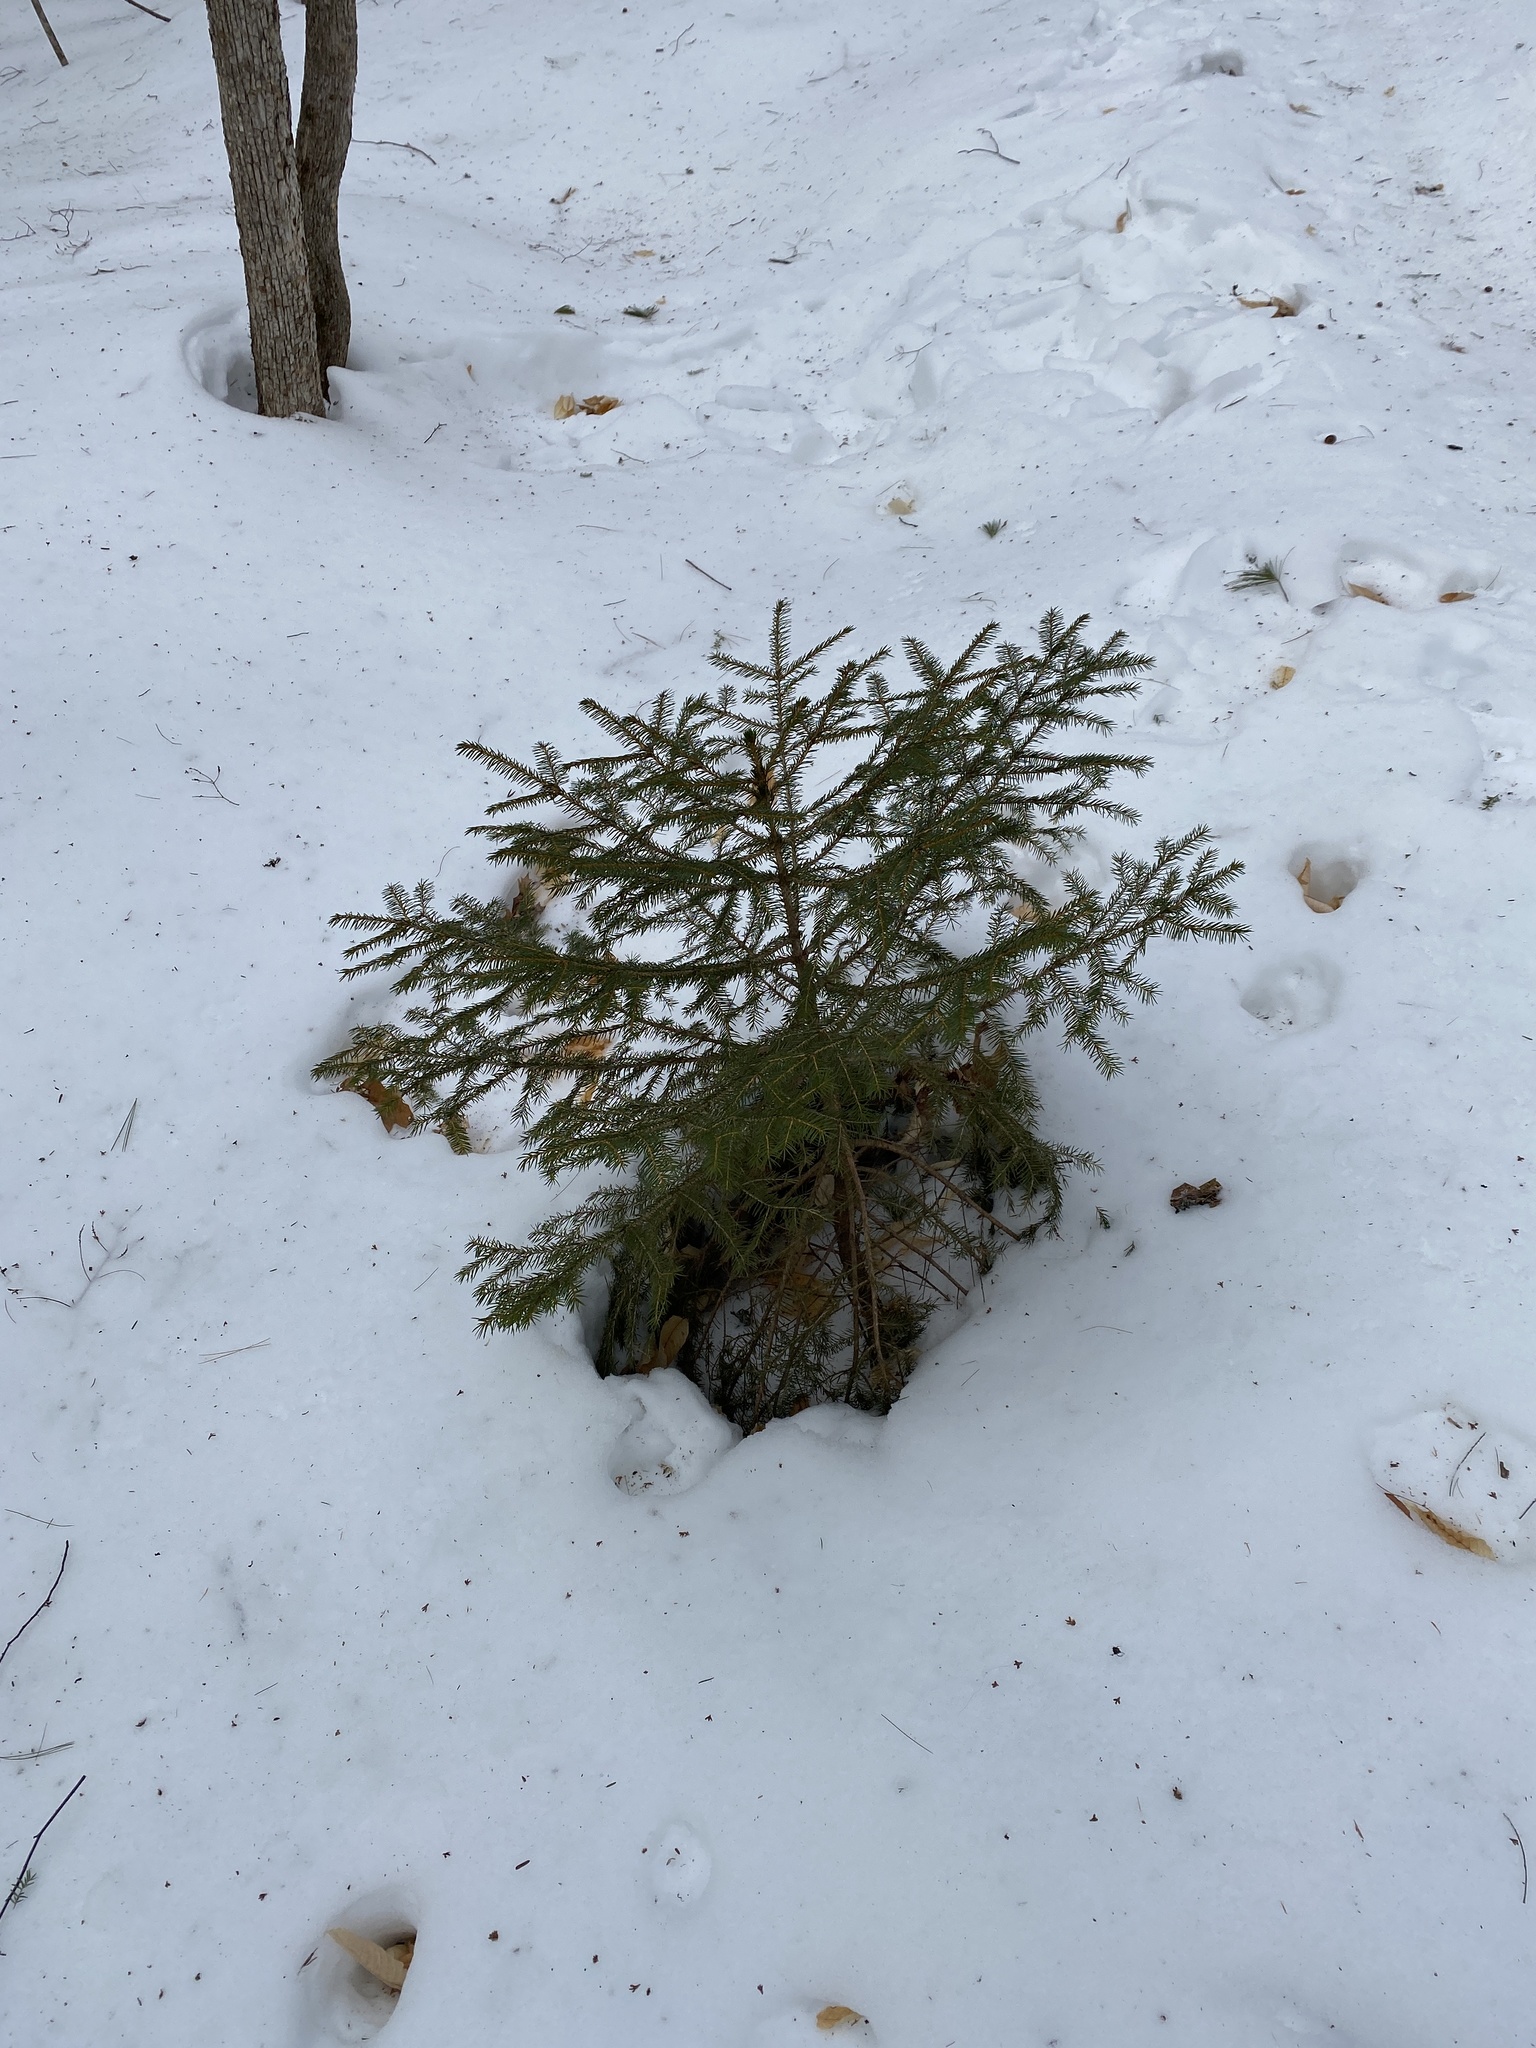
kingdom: Plantae
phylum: Tracheophyta
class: Pinopsida
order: Pinales
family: Pinaceae
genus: Picea
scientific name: Picea rubens
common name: Red spruce
